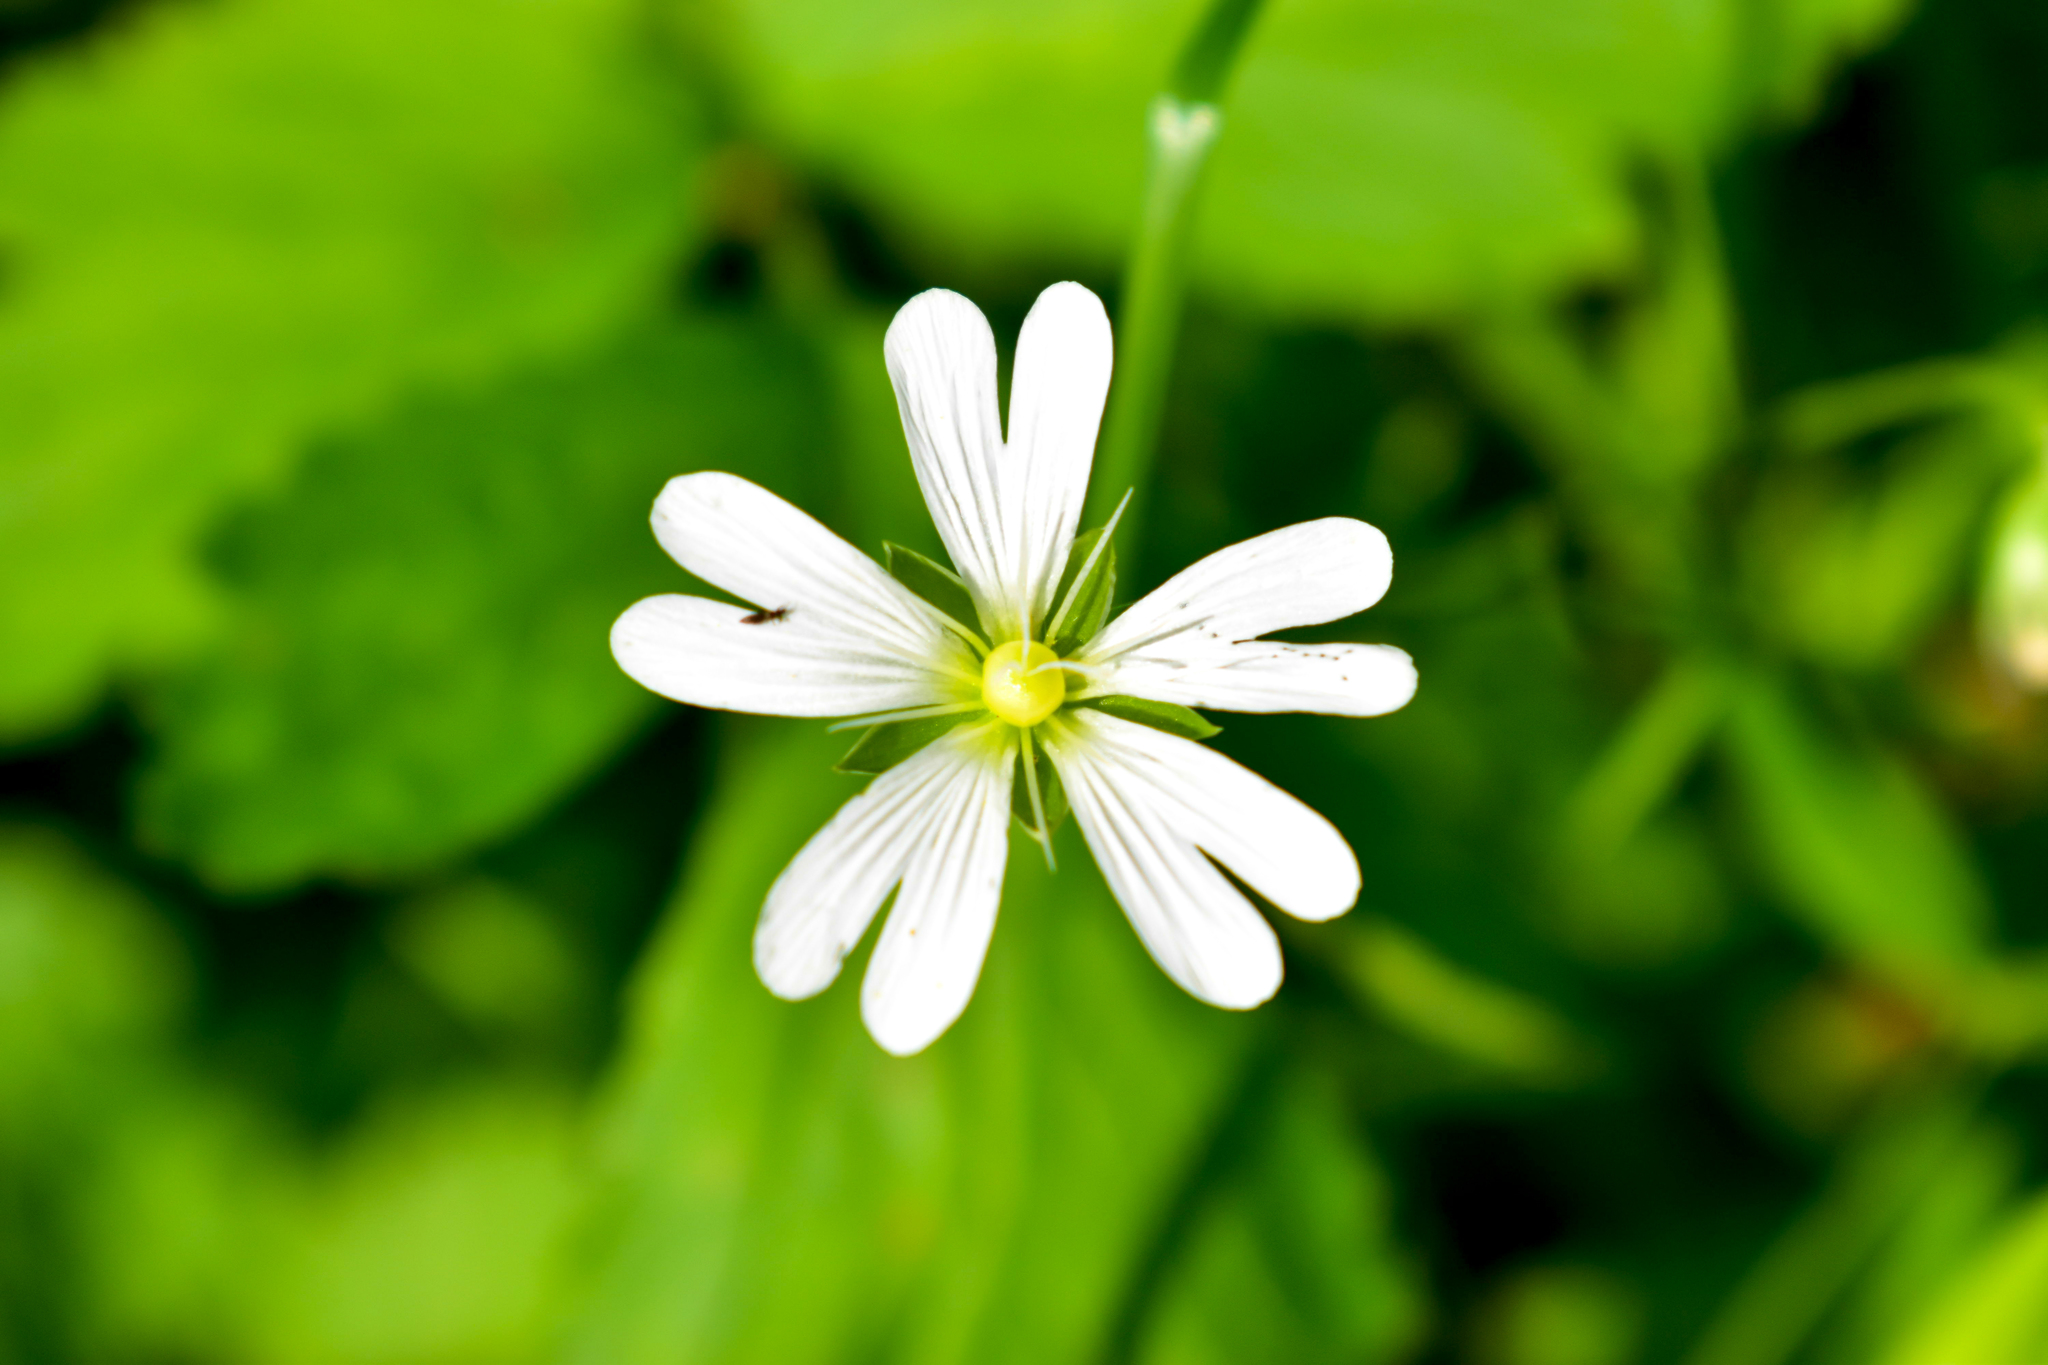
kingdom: Plantae
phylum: Tracheophyta
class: Magnoliopsida
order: Caryophyllales
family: Caryophyllaceae
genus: Rabelera
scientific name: Rabelera holostea
